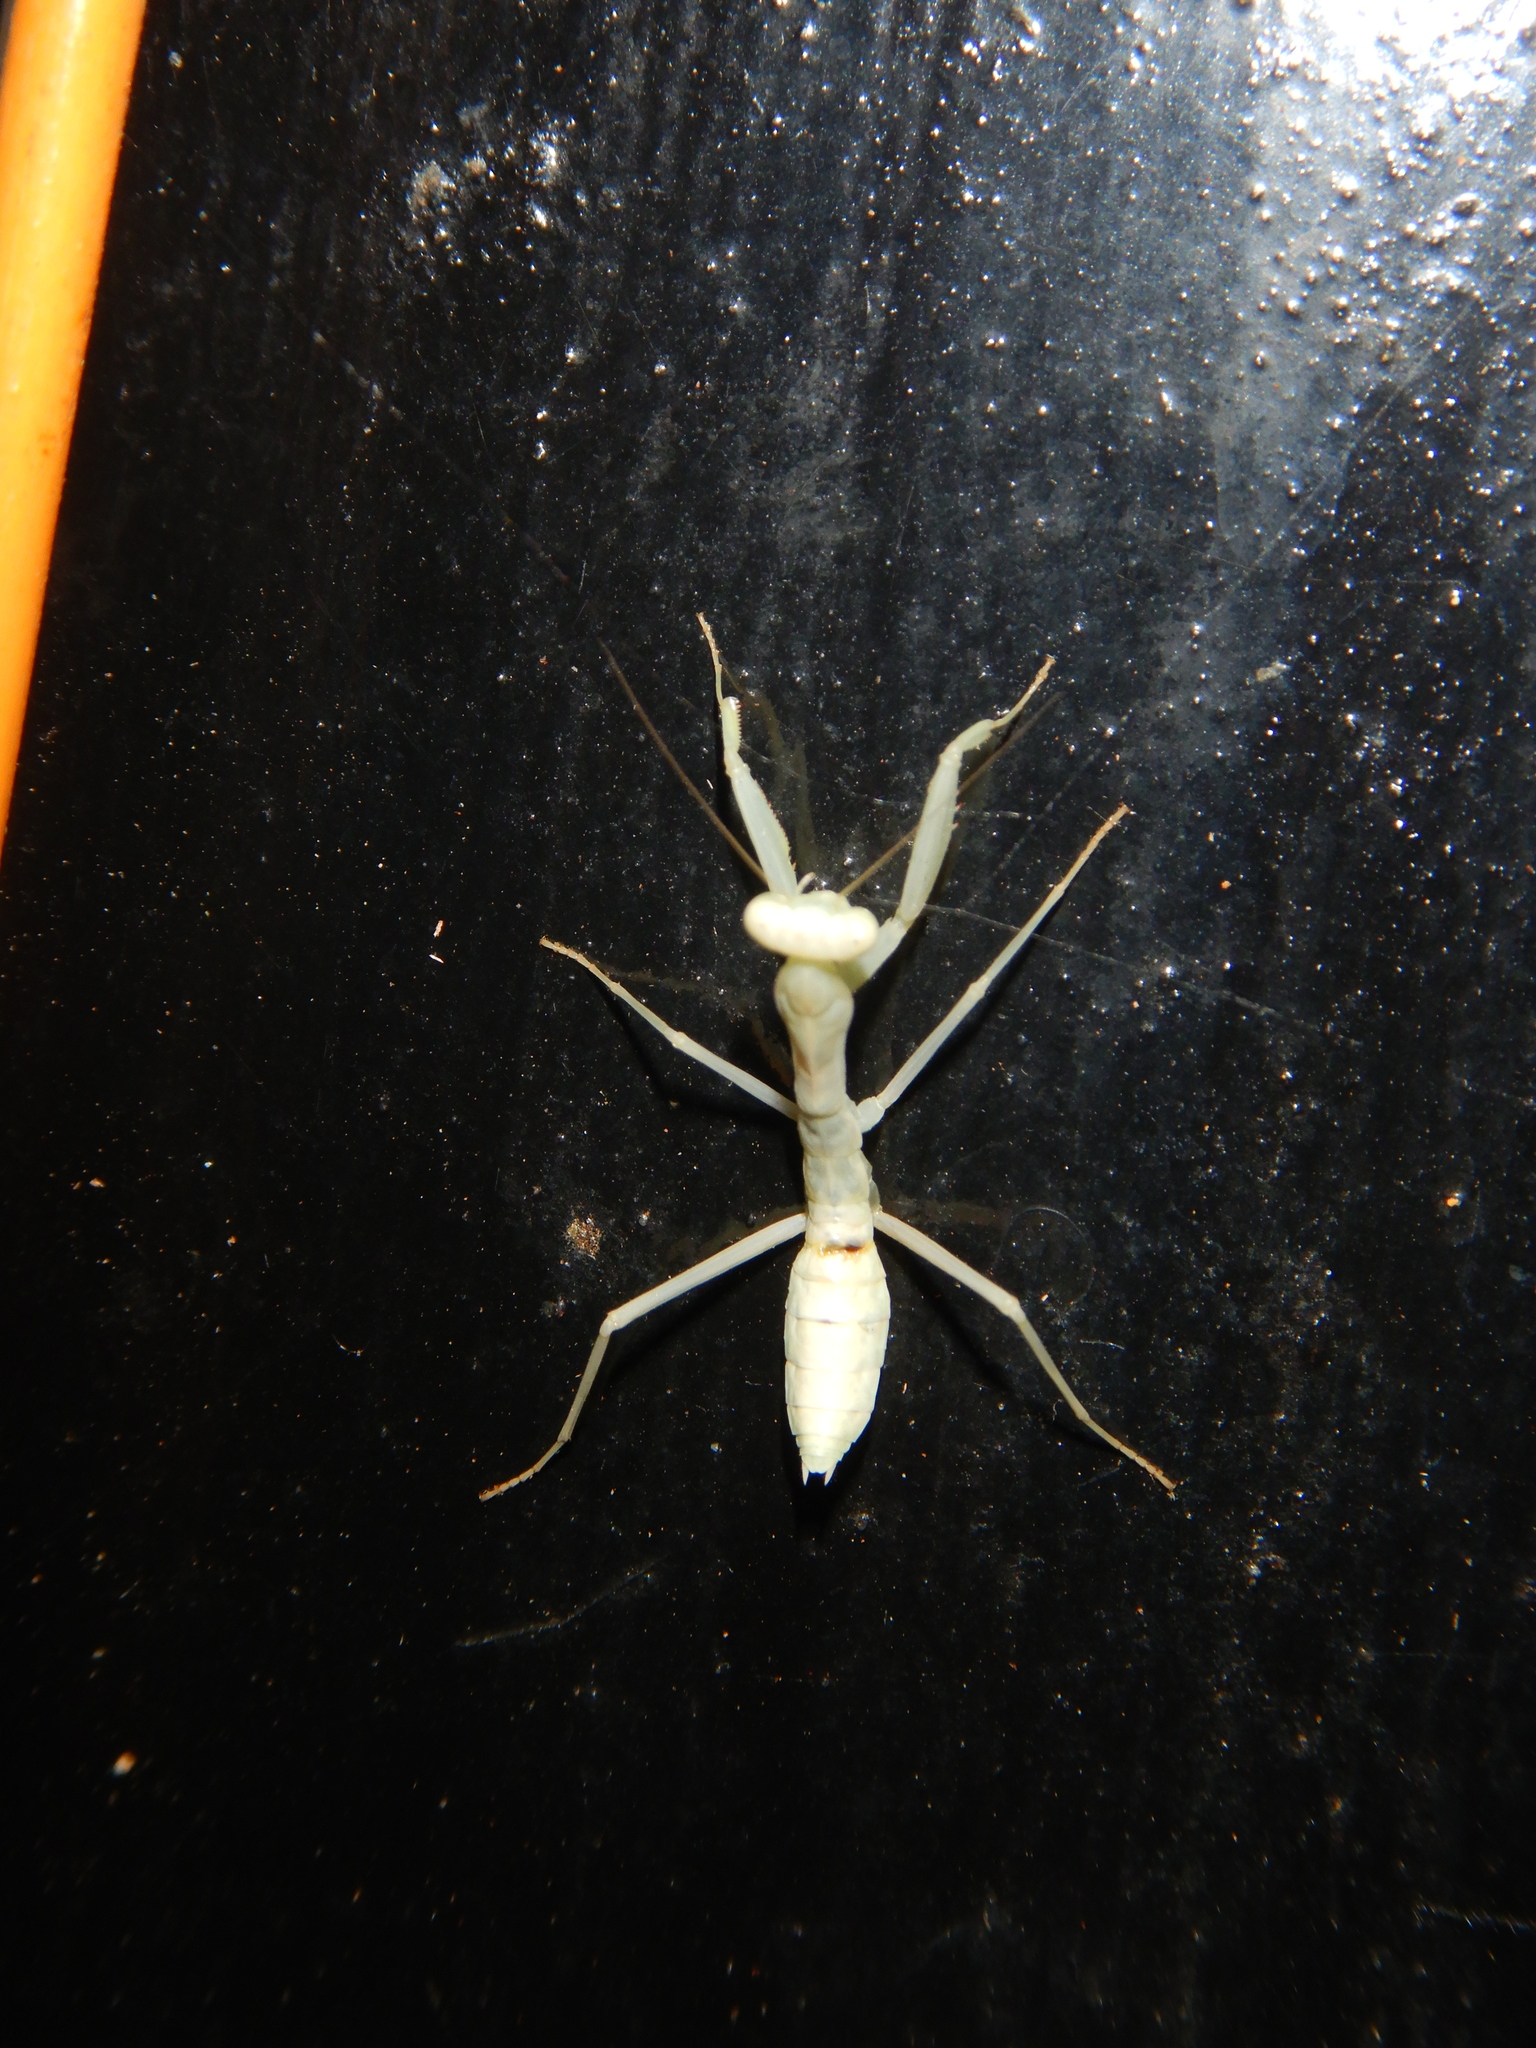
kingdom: Animalia
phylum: Arthropoda
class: Insecta
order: Mantodea
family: Mantidae
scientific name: Mantidae
